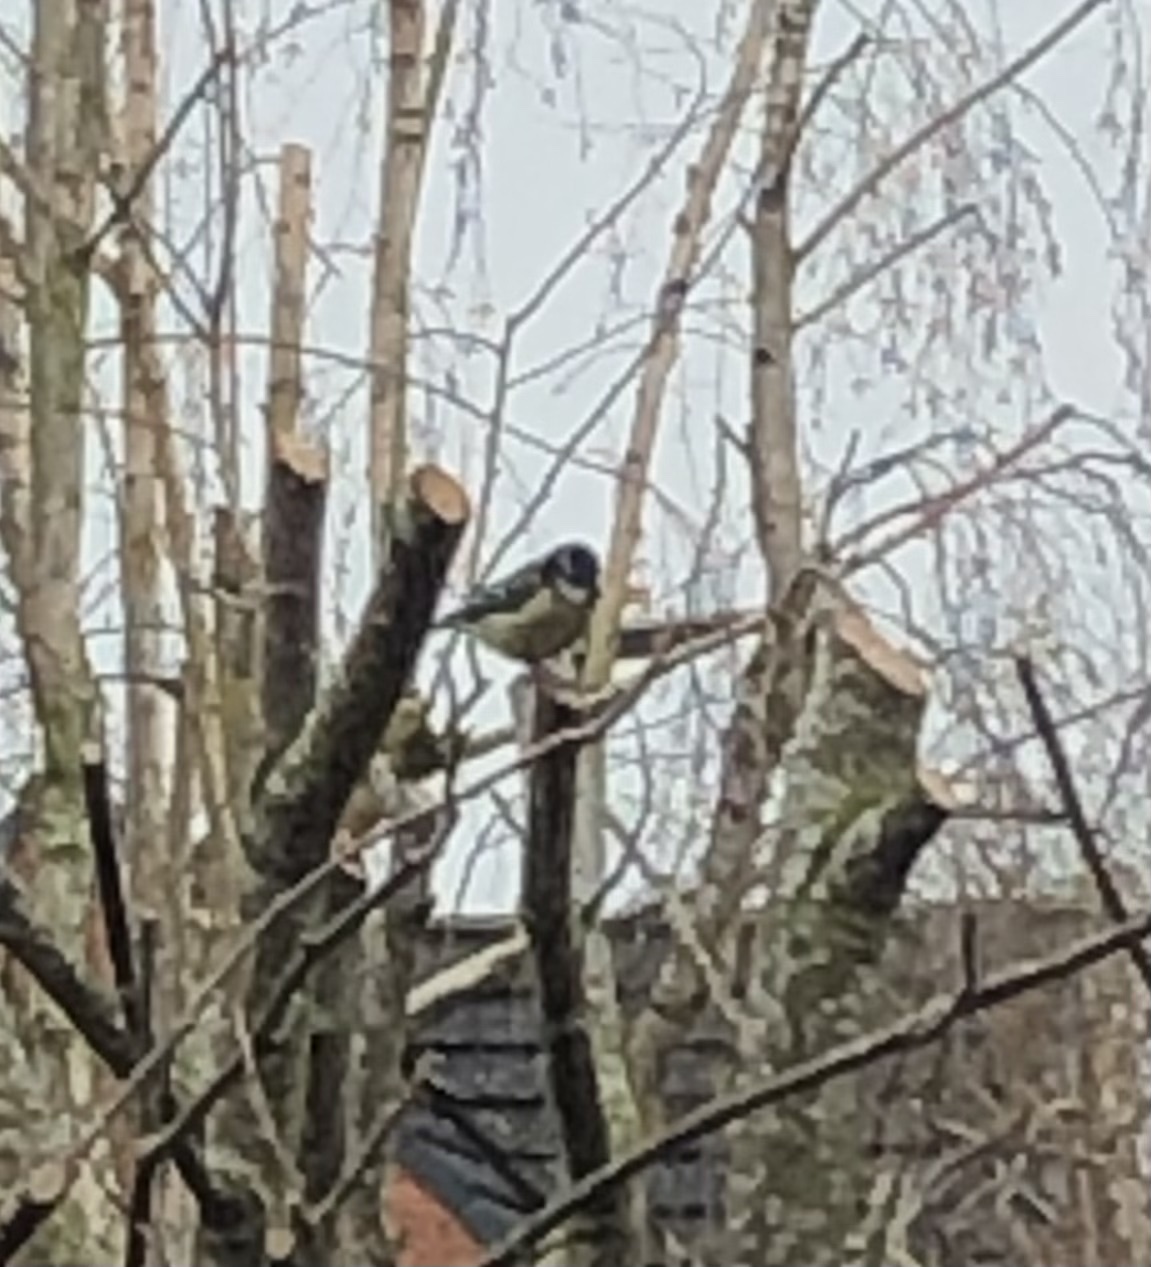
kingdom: Animalia
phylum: Chordata
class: Aves
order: Passeriformes
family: Paridae
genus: Cyanistes
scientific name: Cyanistes caeruleus
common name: Eurasian blue tit
